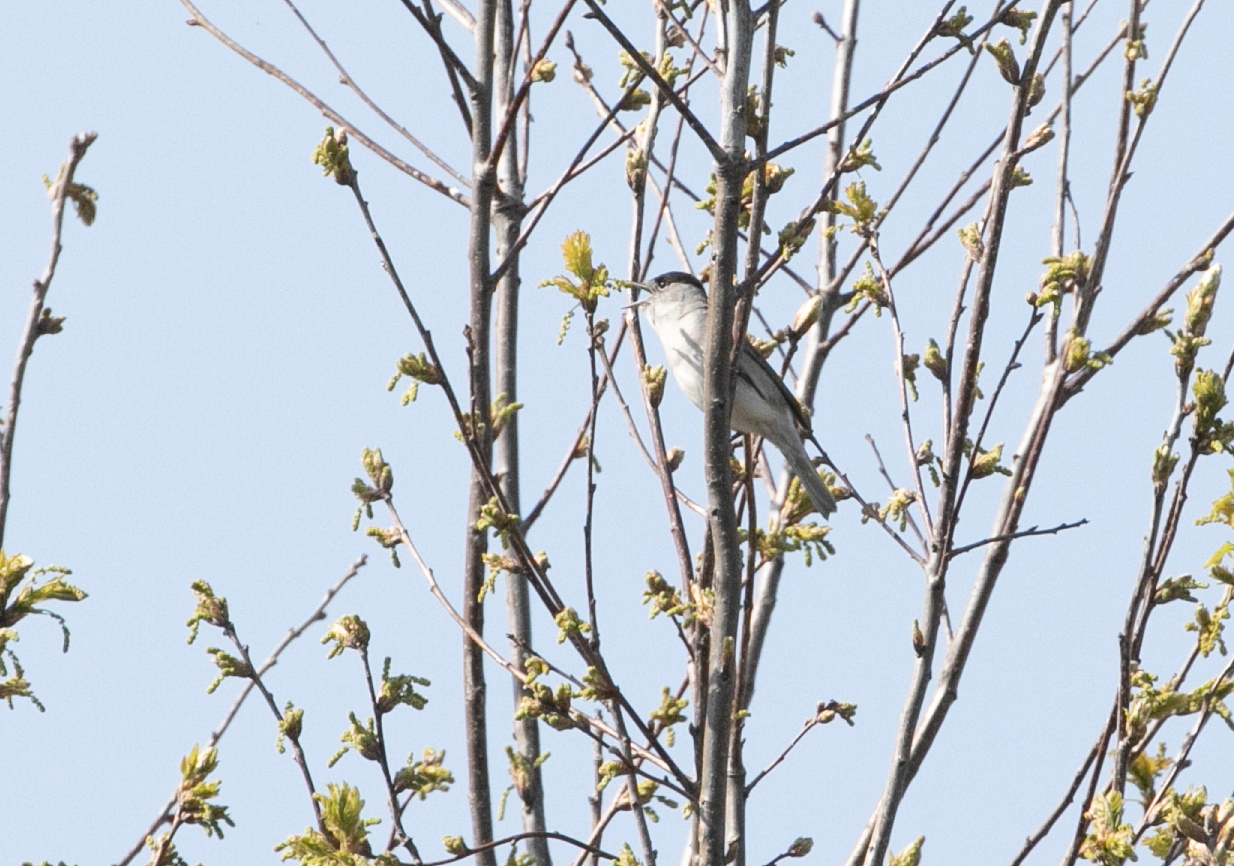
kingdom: Animalia
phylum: Chordata
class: Aves
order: Passeriformes
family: Sylviidae
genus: Sylvia
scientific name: Sylvia atricapilla
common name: Eurasian blackcap
